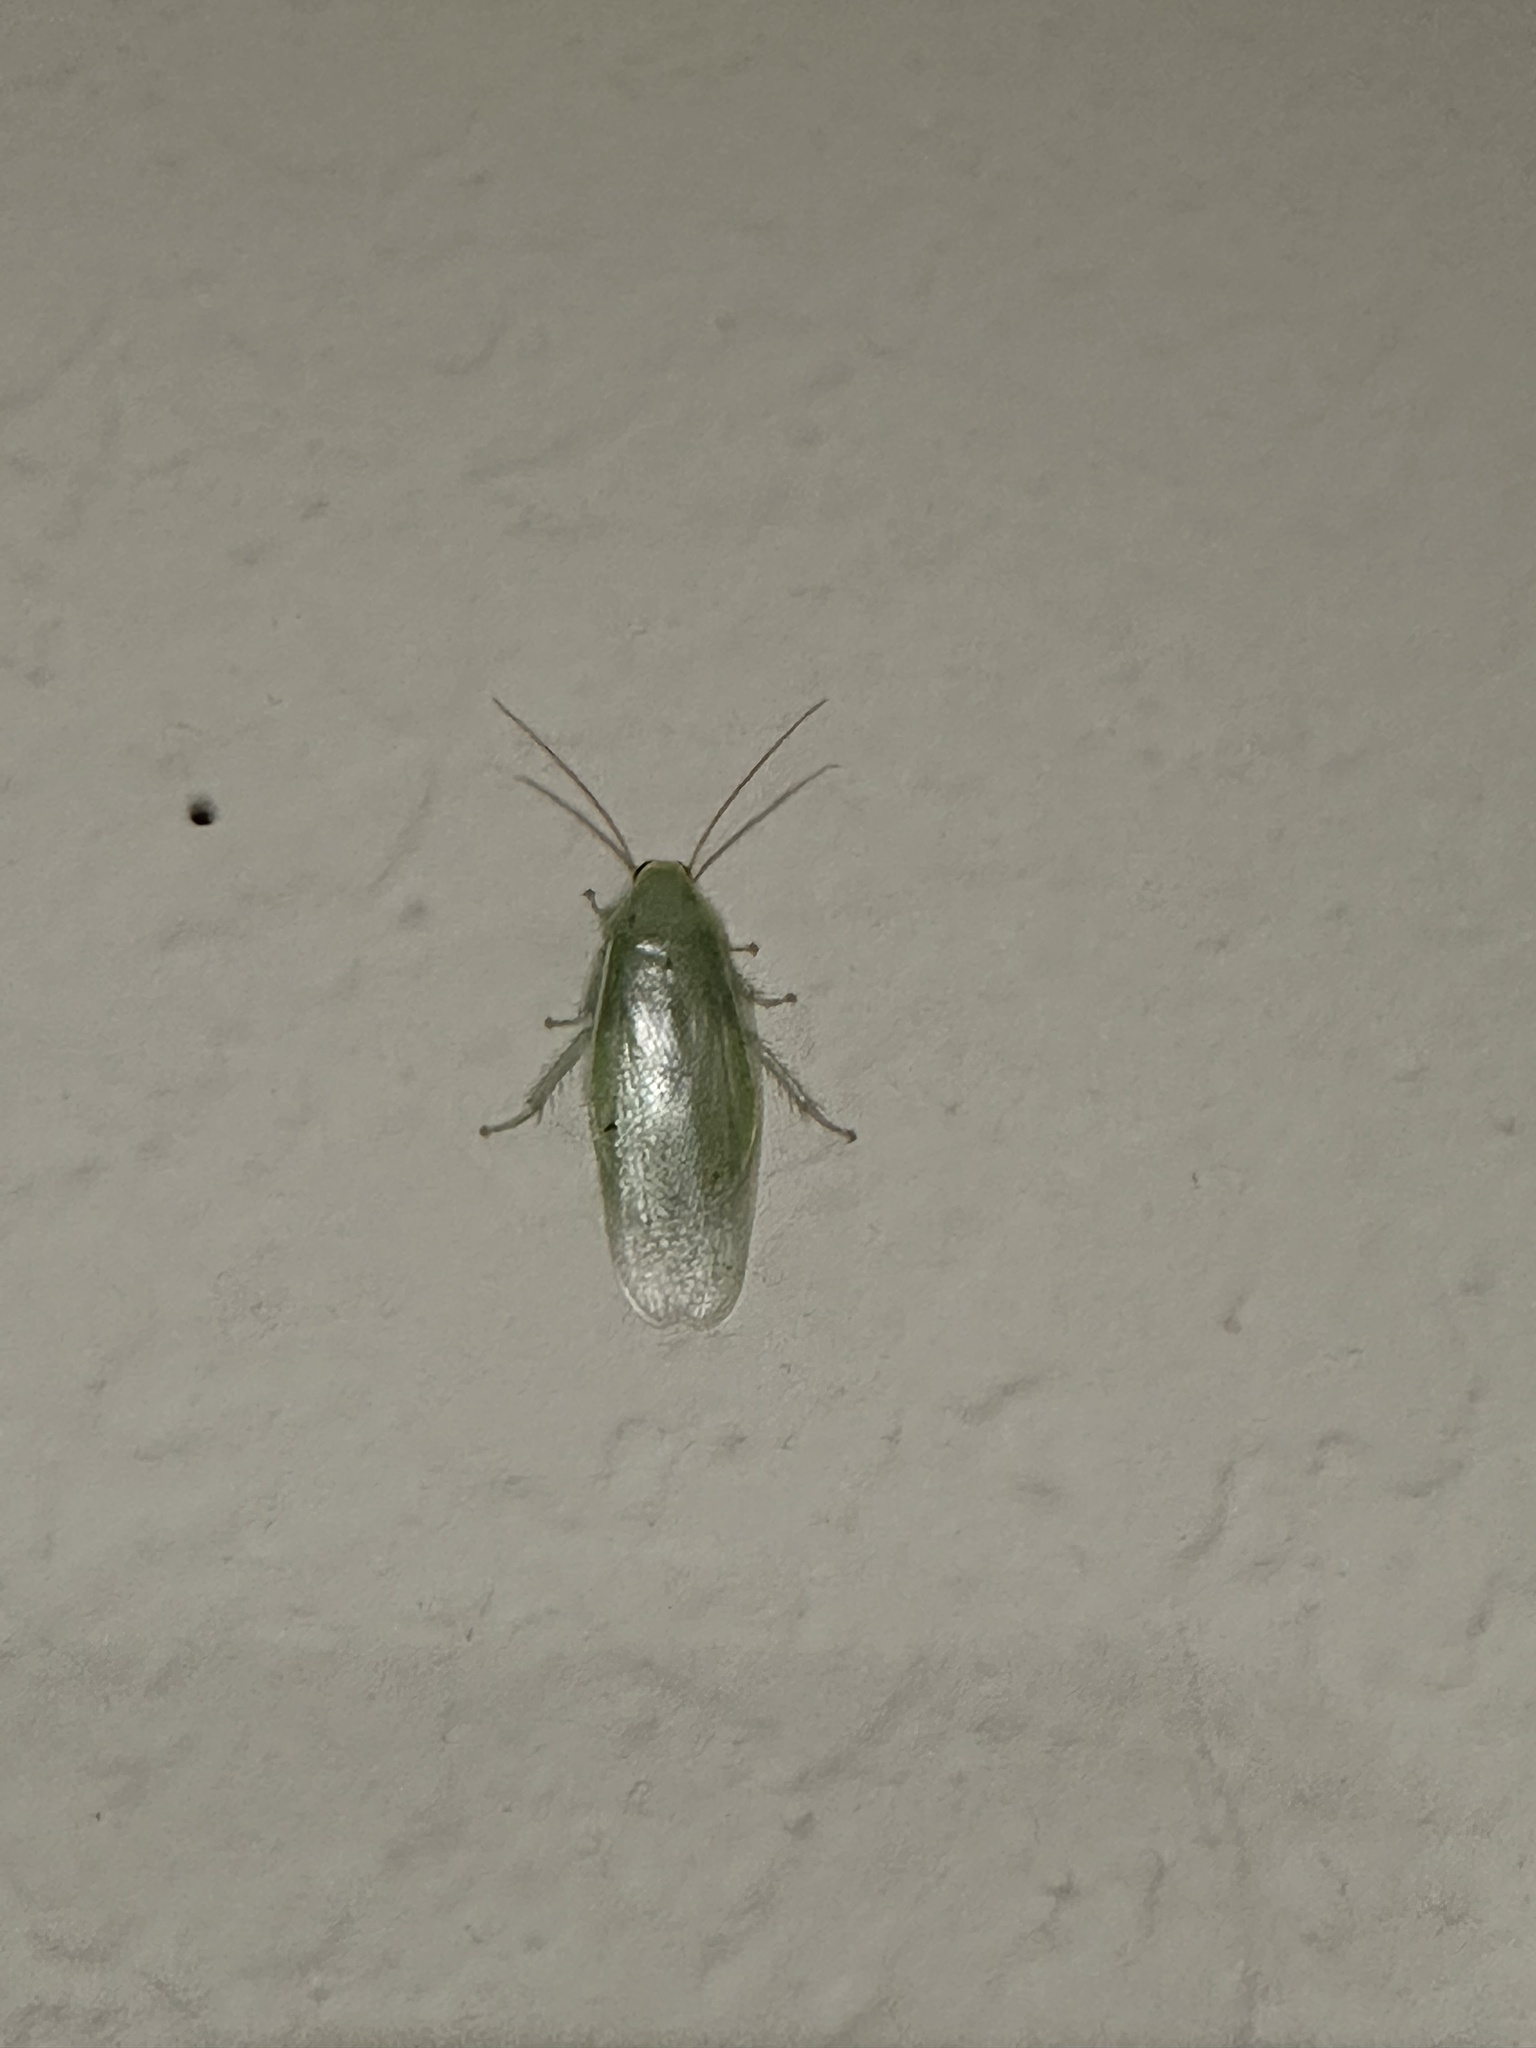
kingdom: Animalia
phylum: Arthropoda
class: Insecta
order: Blattodea
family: Blaberidae
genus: Panchlora
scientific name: Panchlora nivea
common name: Cuban cockroach
